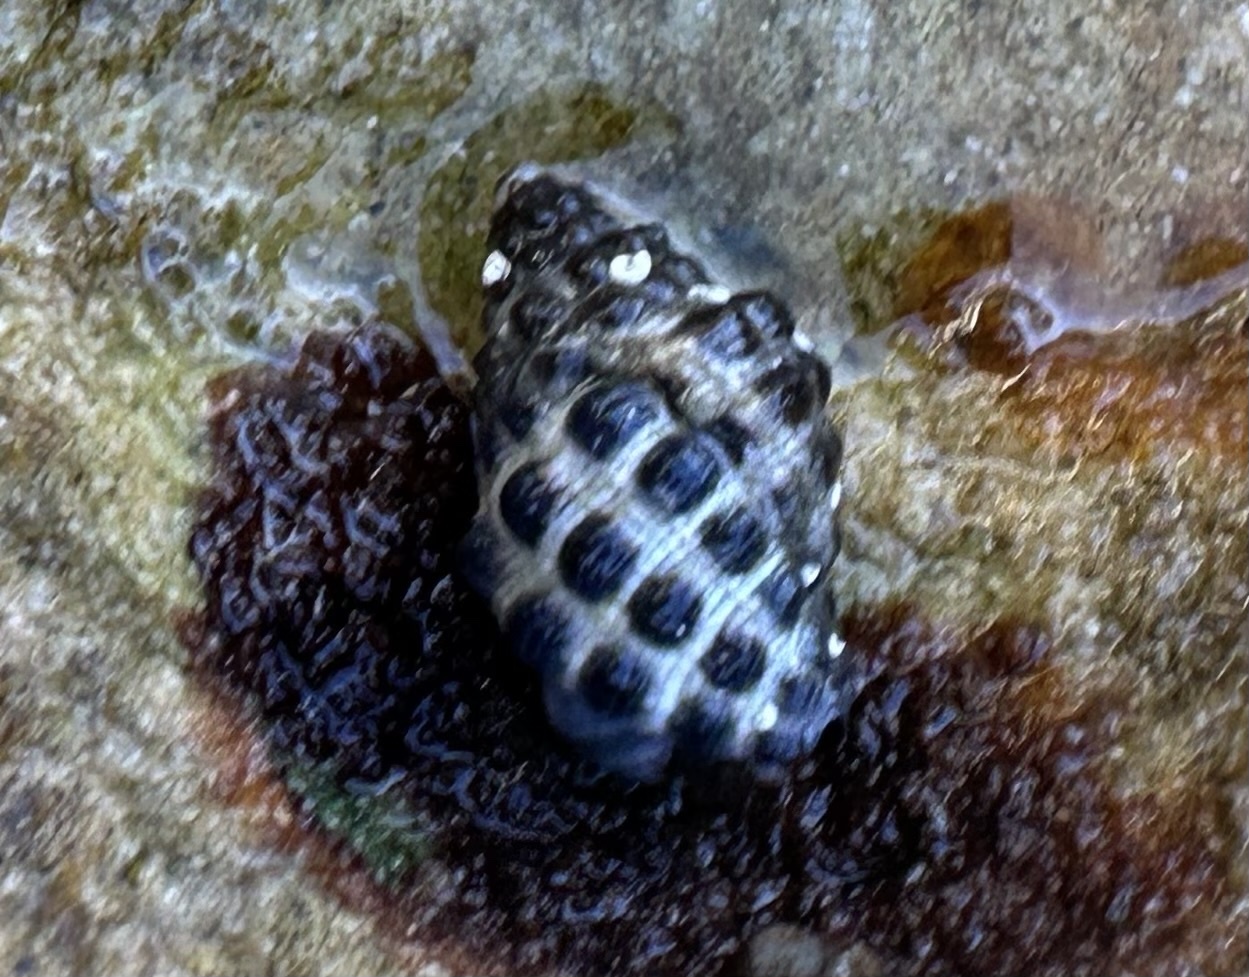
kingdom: Animalia
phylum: Mollusca
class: Gastropoda
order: Neogastropoda
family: Muricidae
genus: Tenguella
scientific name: Tenguella marginalba
